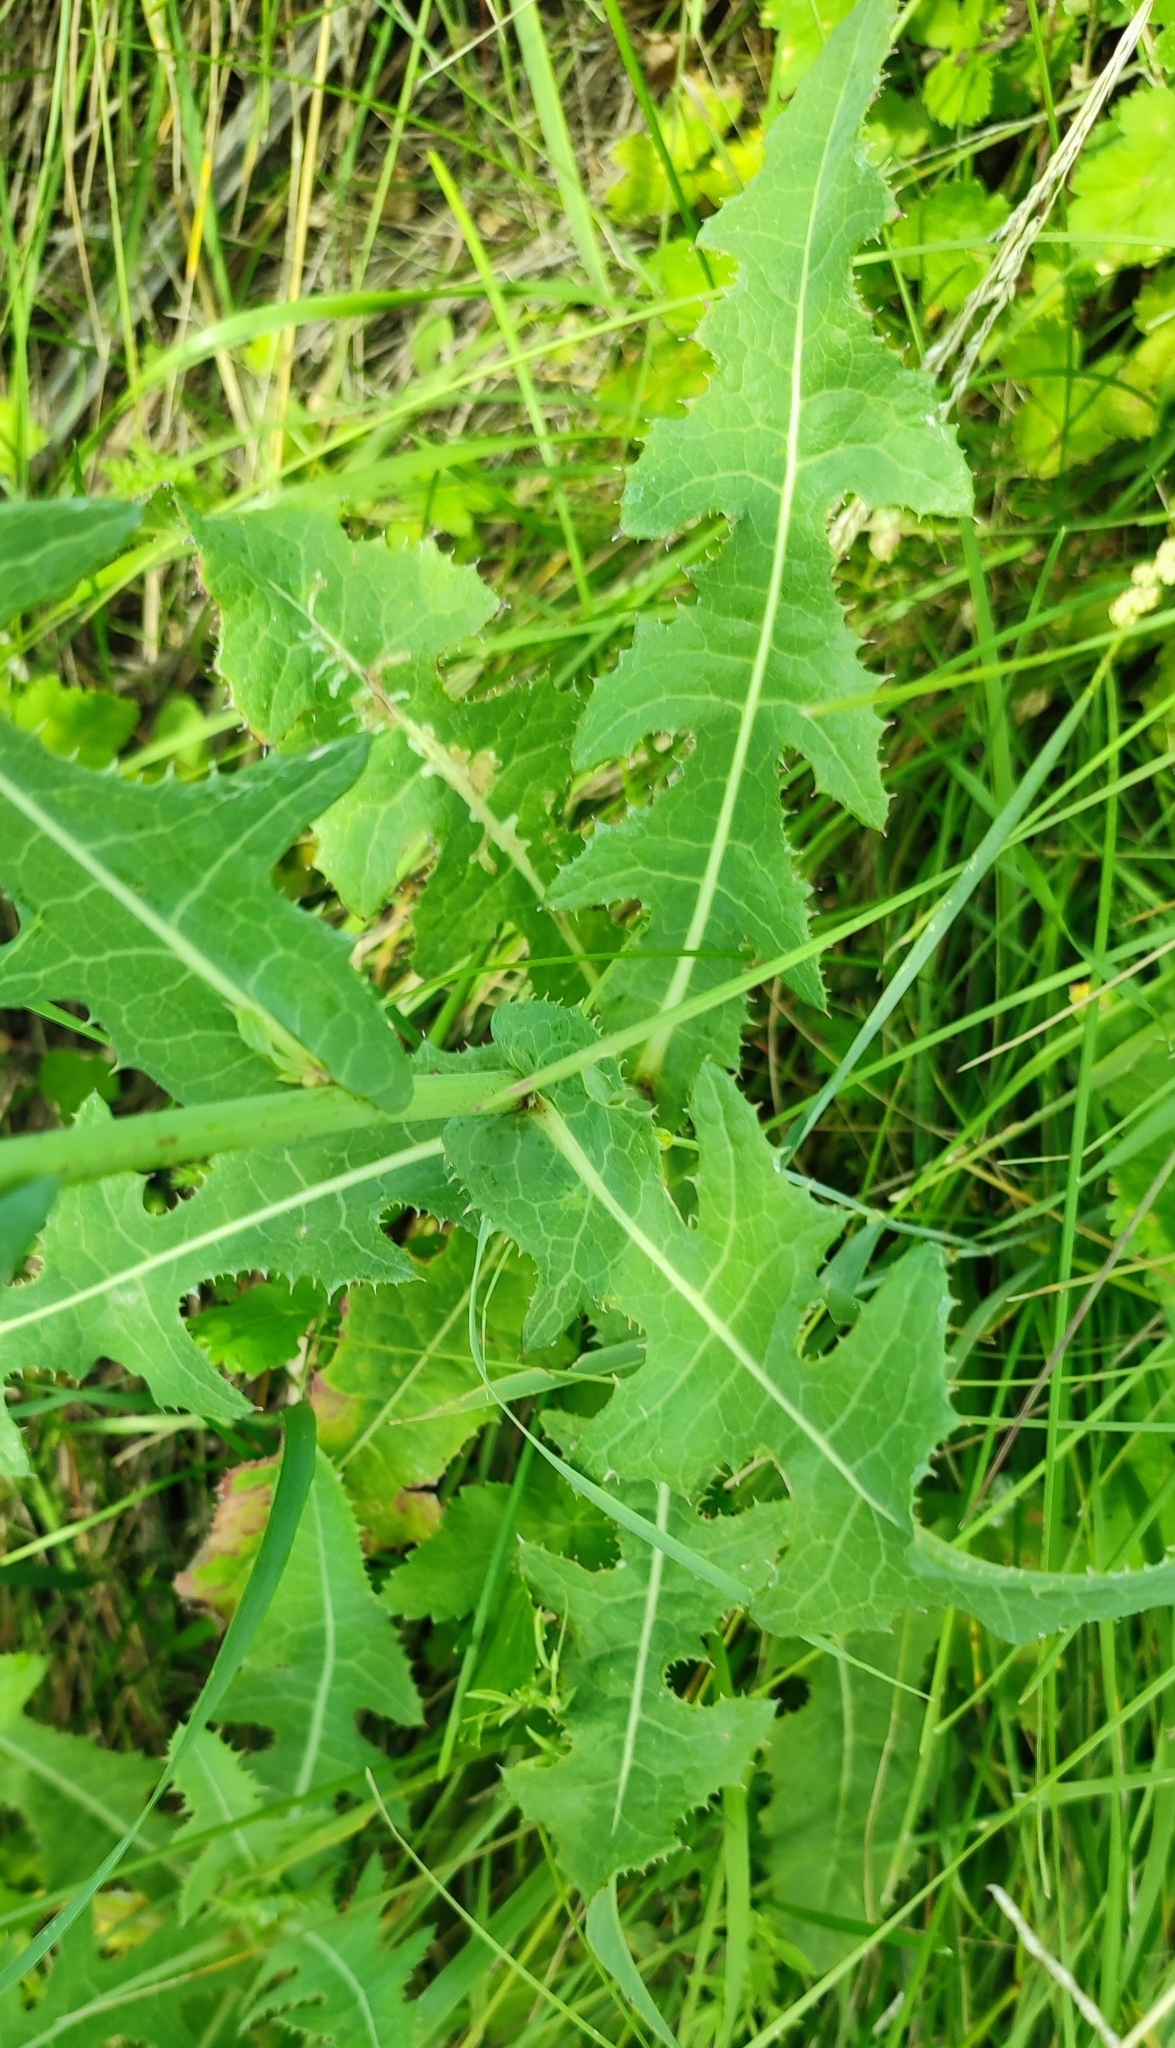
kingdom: Plantae
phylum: Tracheophyta
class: Magnoliopsida
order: Asterales
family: Asteraceae
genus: Sonchus
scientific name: Sonchus arvensis
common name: Perennial sow-thistle
